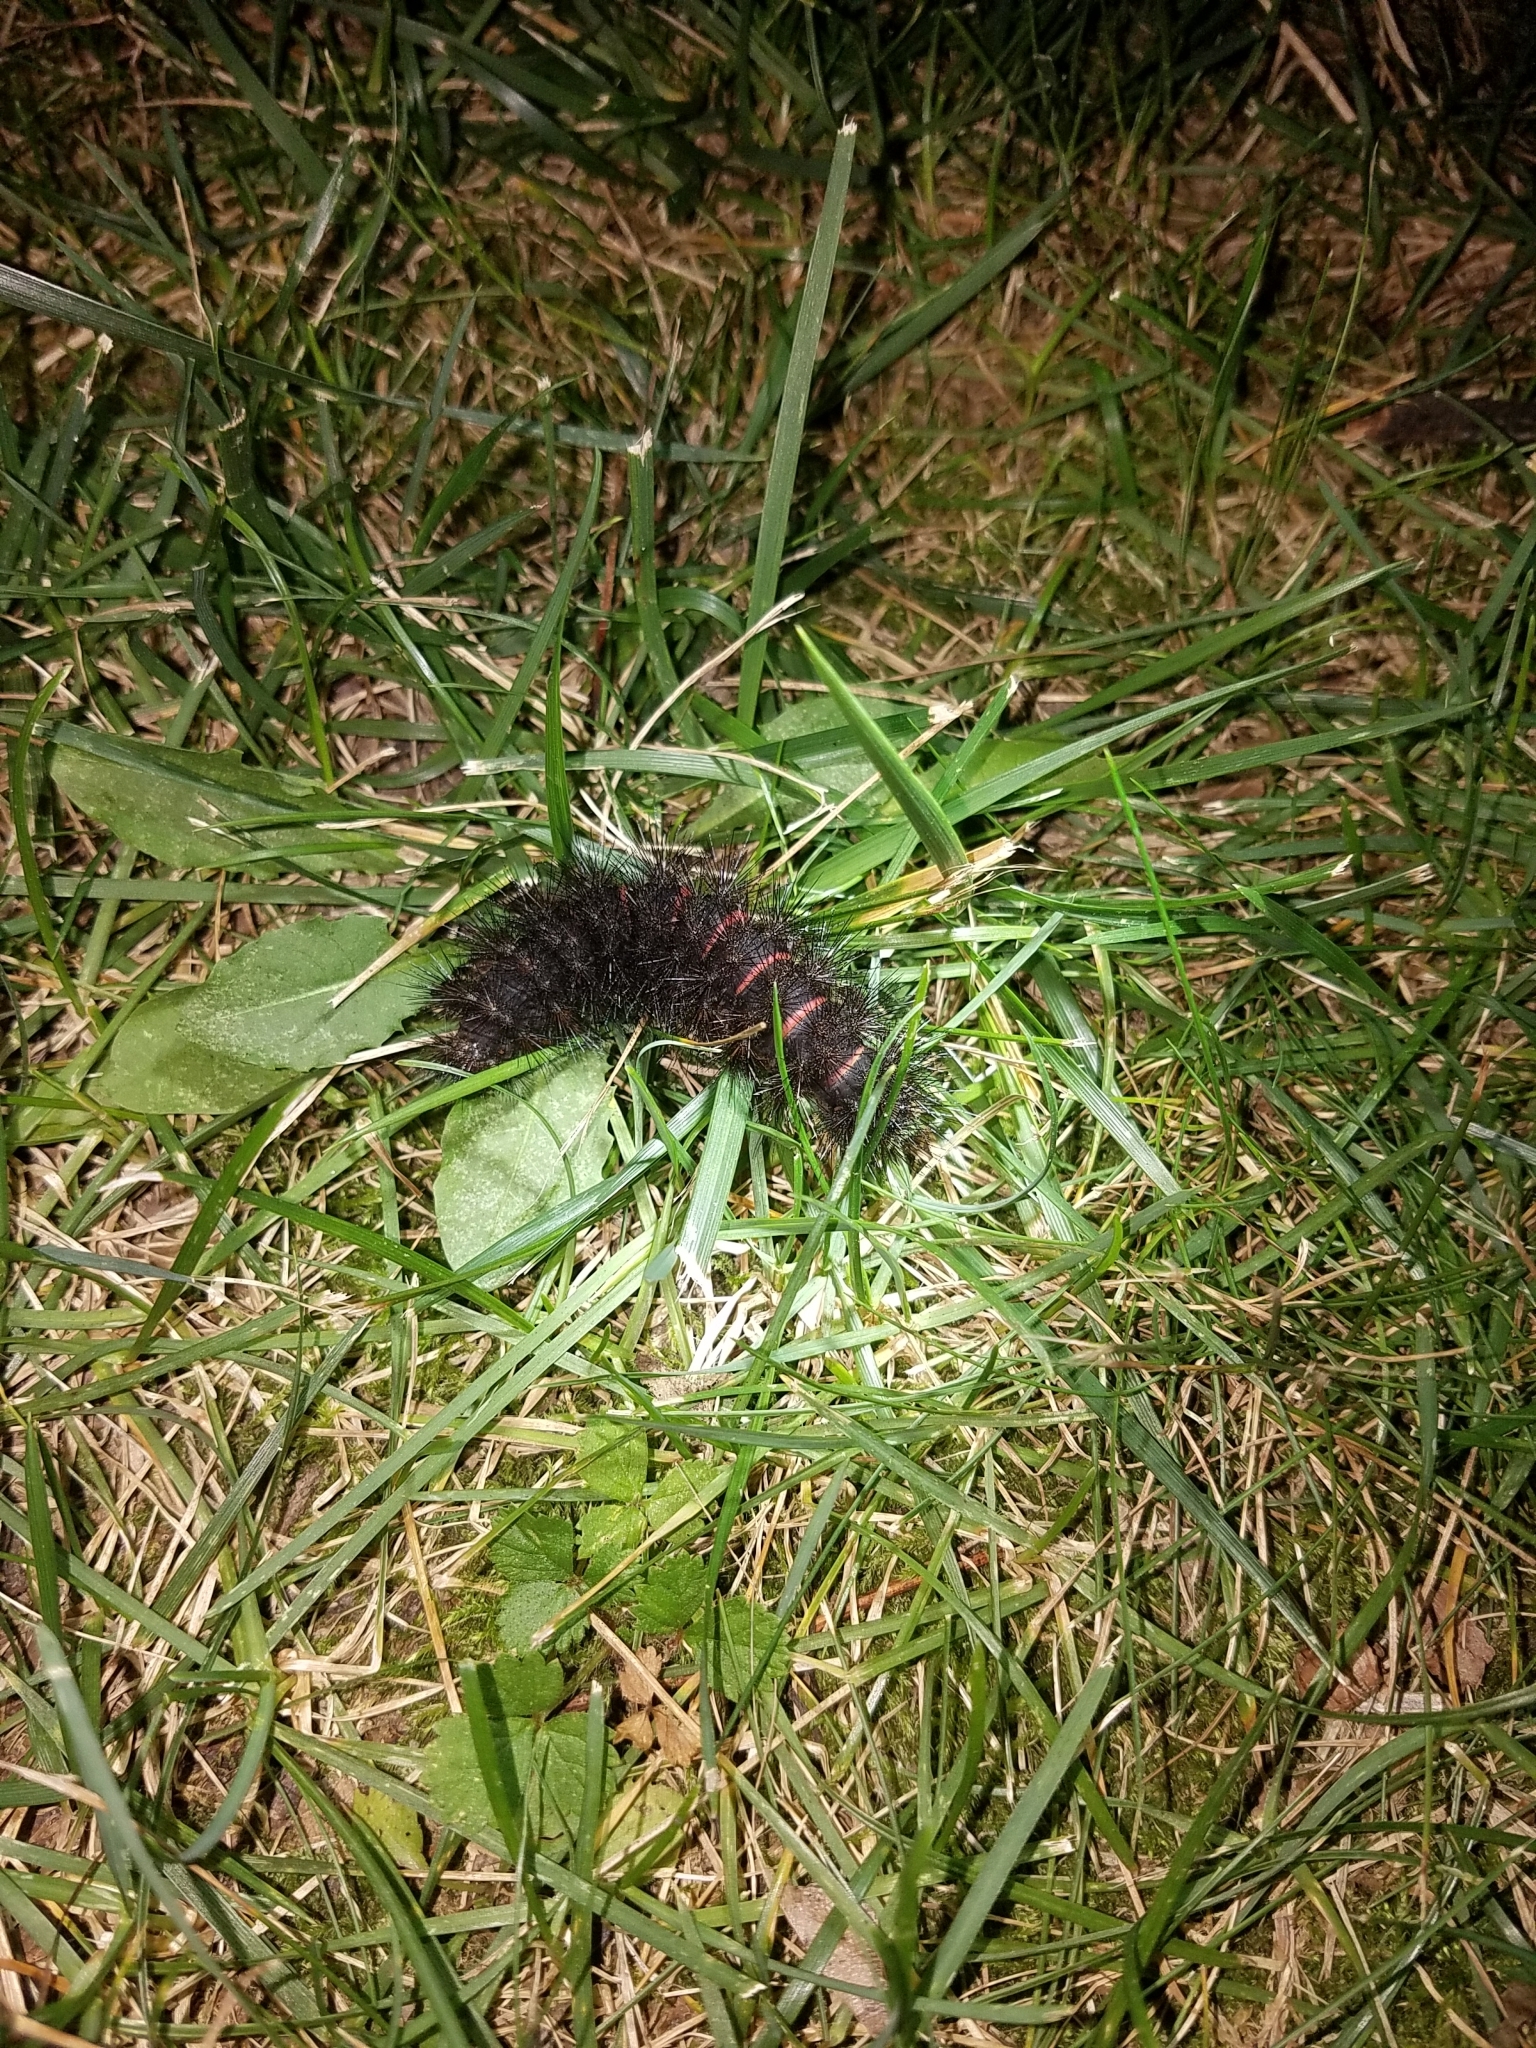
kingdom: Animalia
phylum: Arthropoda
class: Insecta
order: Lepidoptera
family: Erebidae
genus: Hypercompe
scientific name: Hypercompe scribonia
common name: Giant leopard moth
